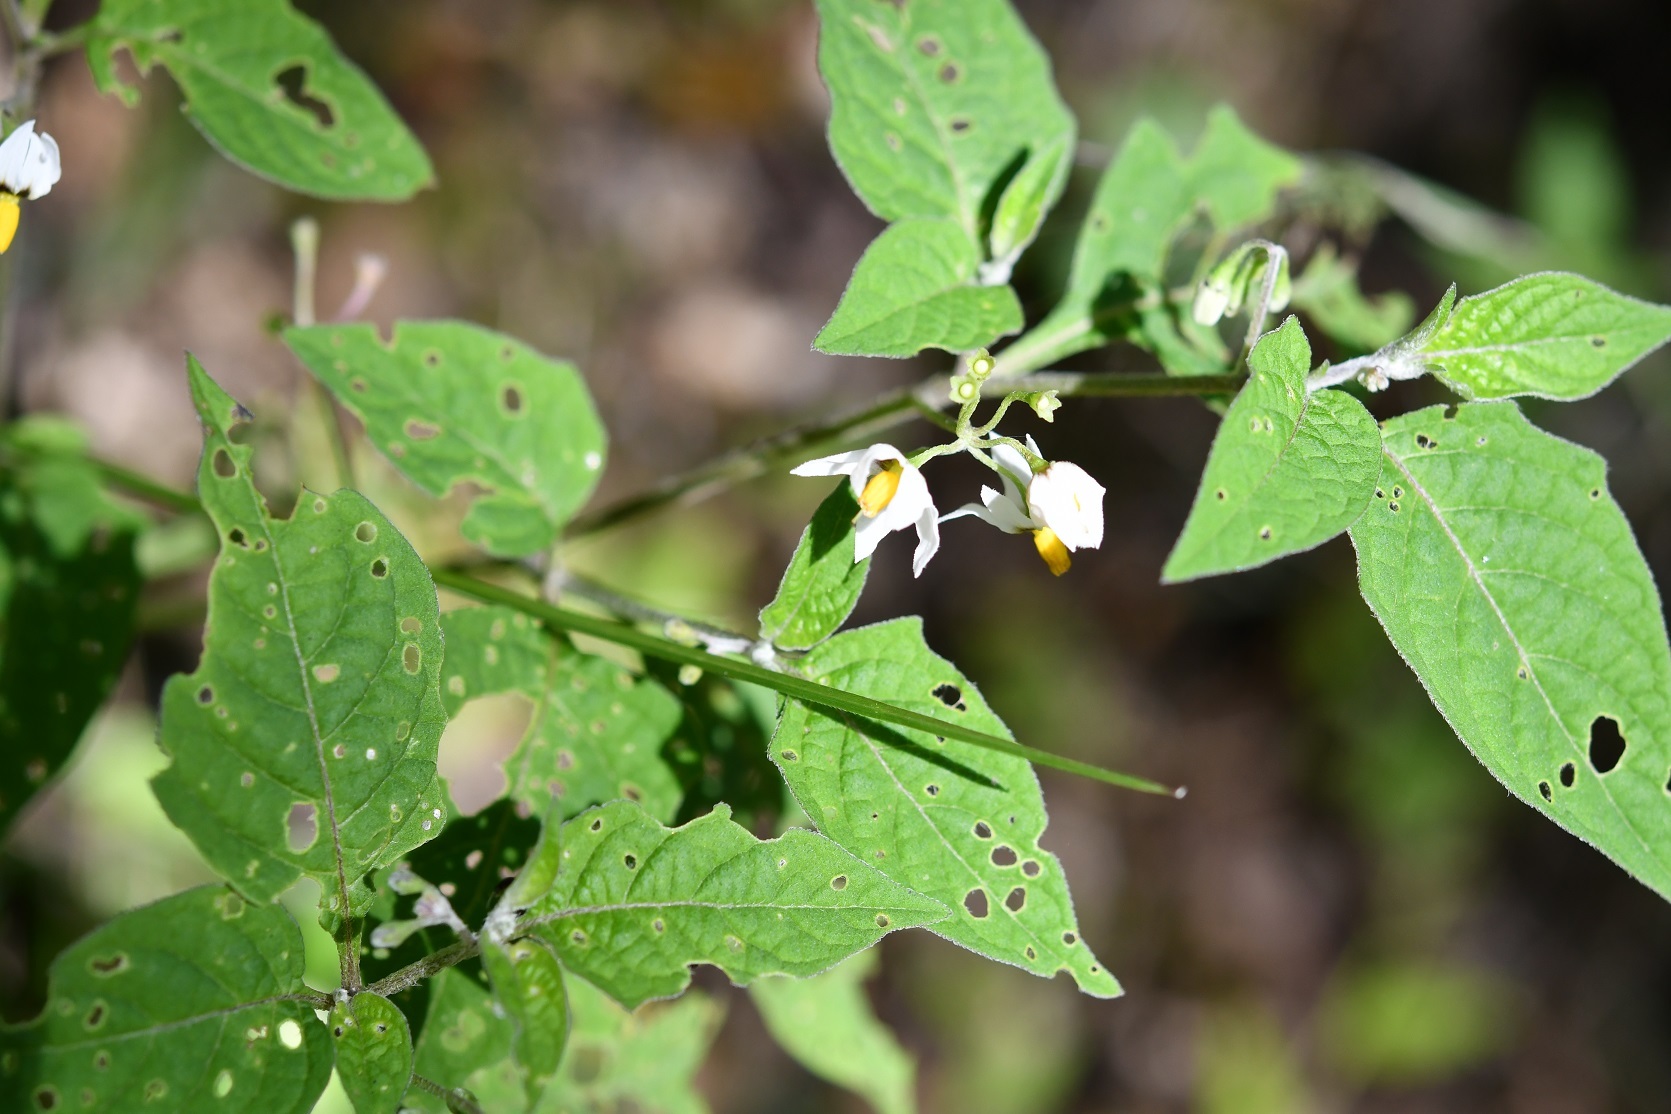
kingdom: Plantae
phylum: Tracheophyta
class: Magnoliopsida
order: Solanales
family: Solanaceae
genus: Solanum
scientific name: Solanum nigrescens
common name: Divine nightshade
